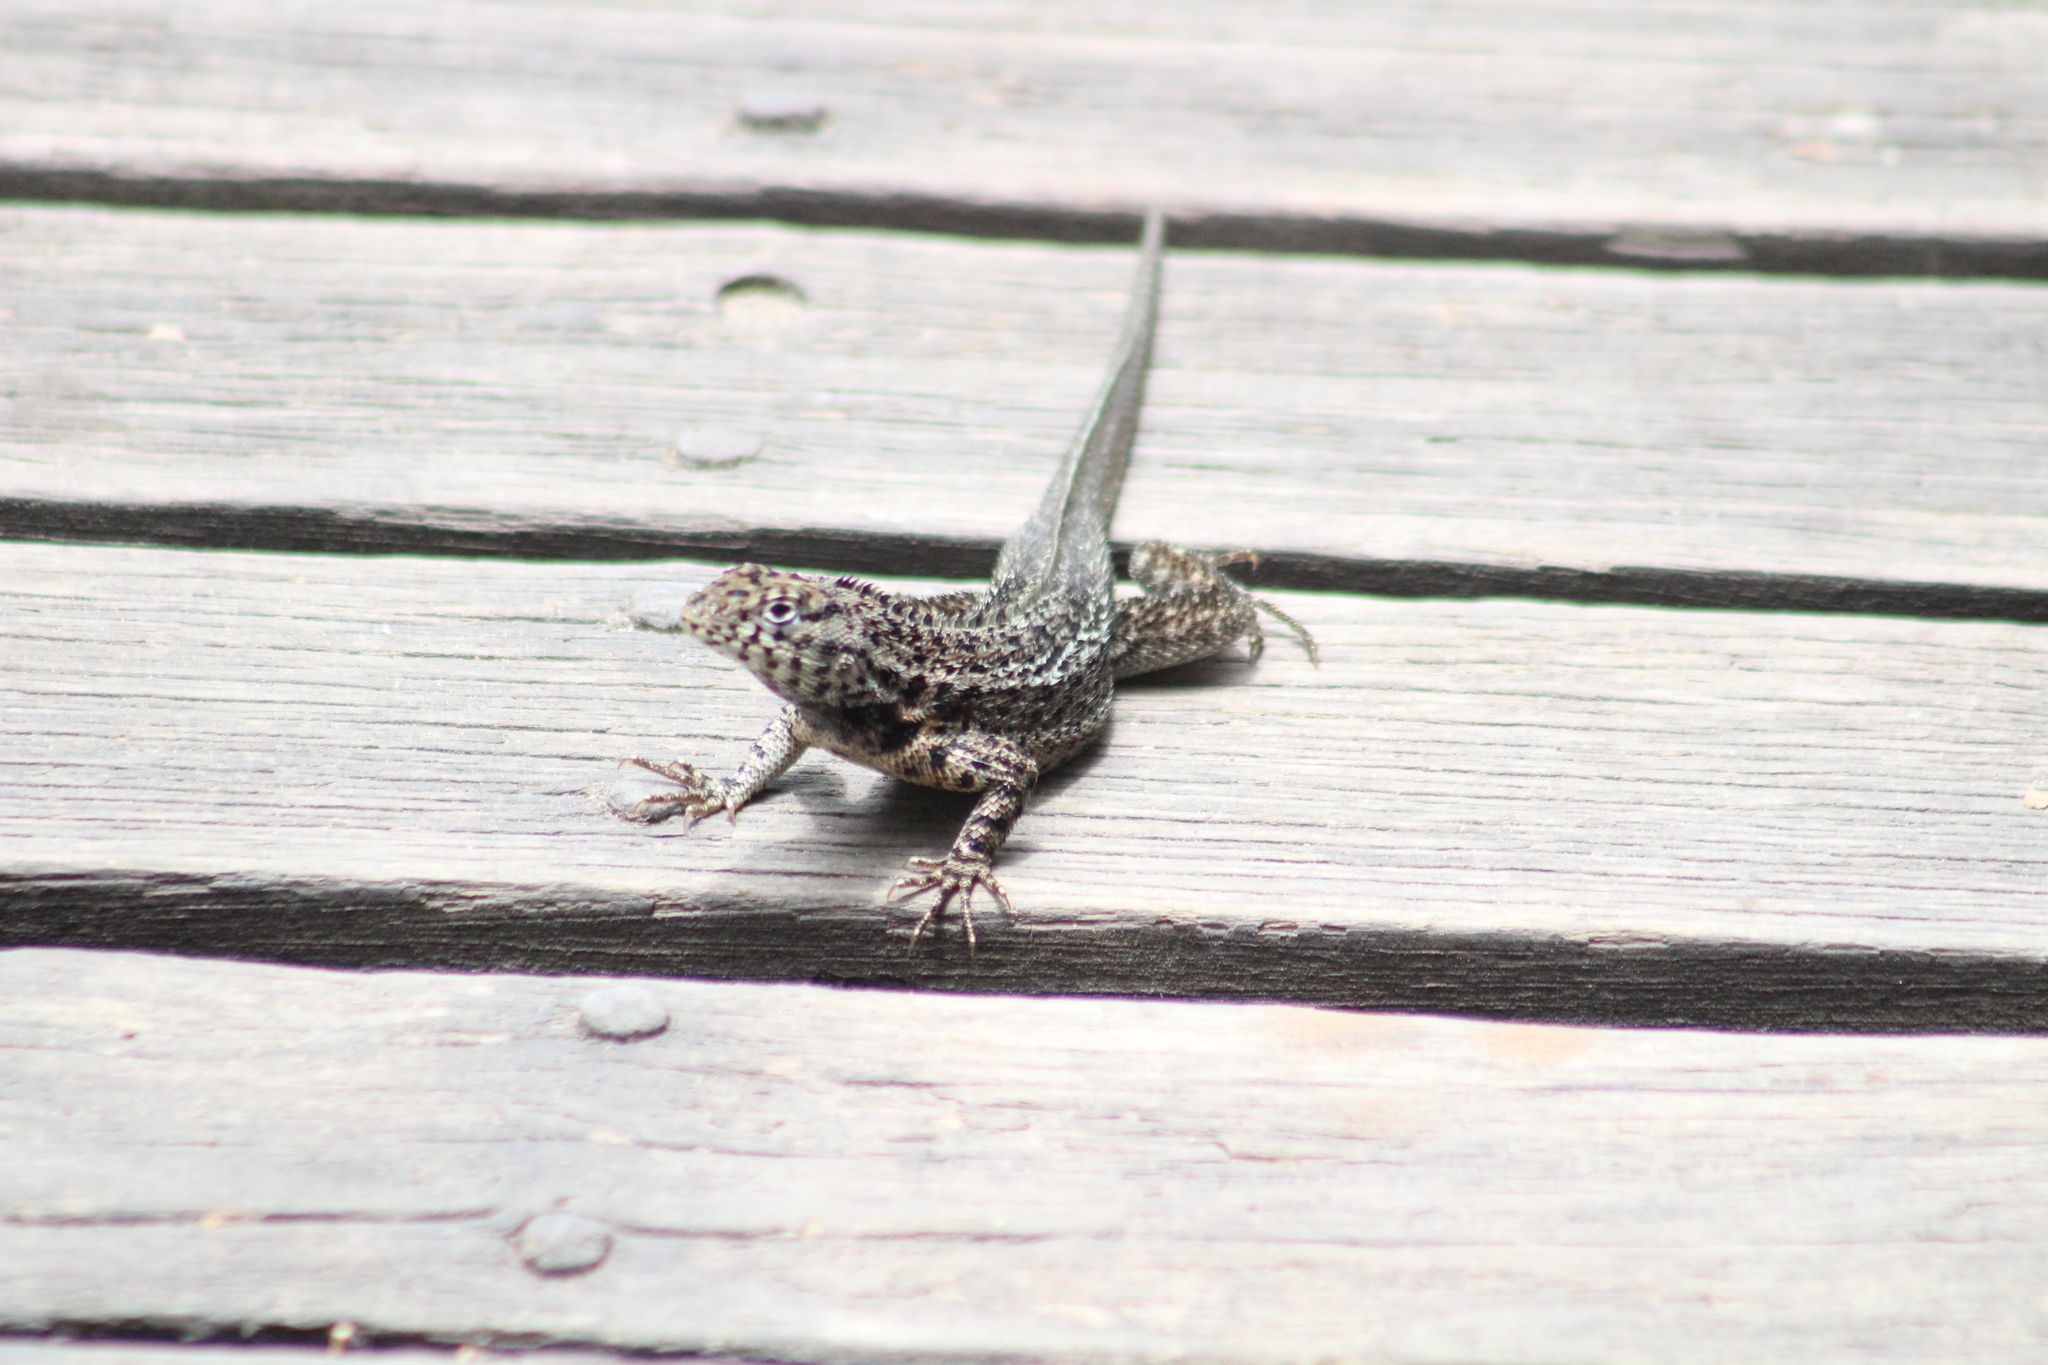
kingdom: Animalia
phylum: Chordata
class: Squamata
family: Tropiduridae
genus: Microlophus
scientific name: Microlophus albemarlensis
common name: Galapagos lava lizard
